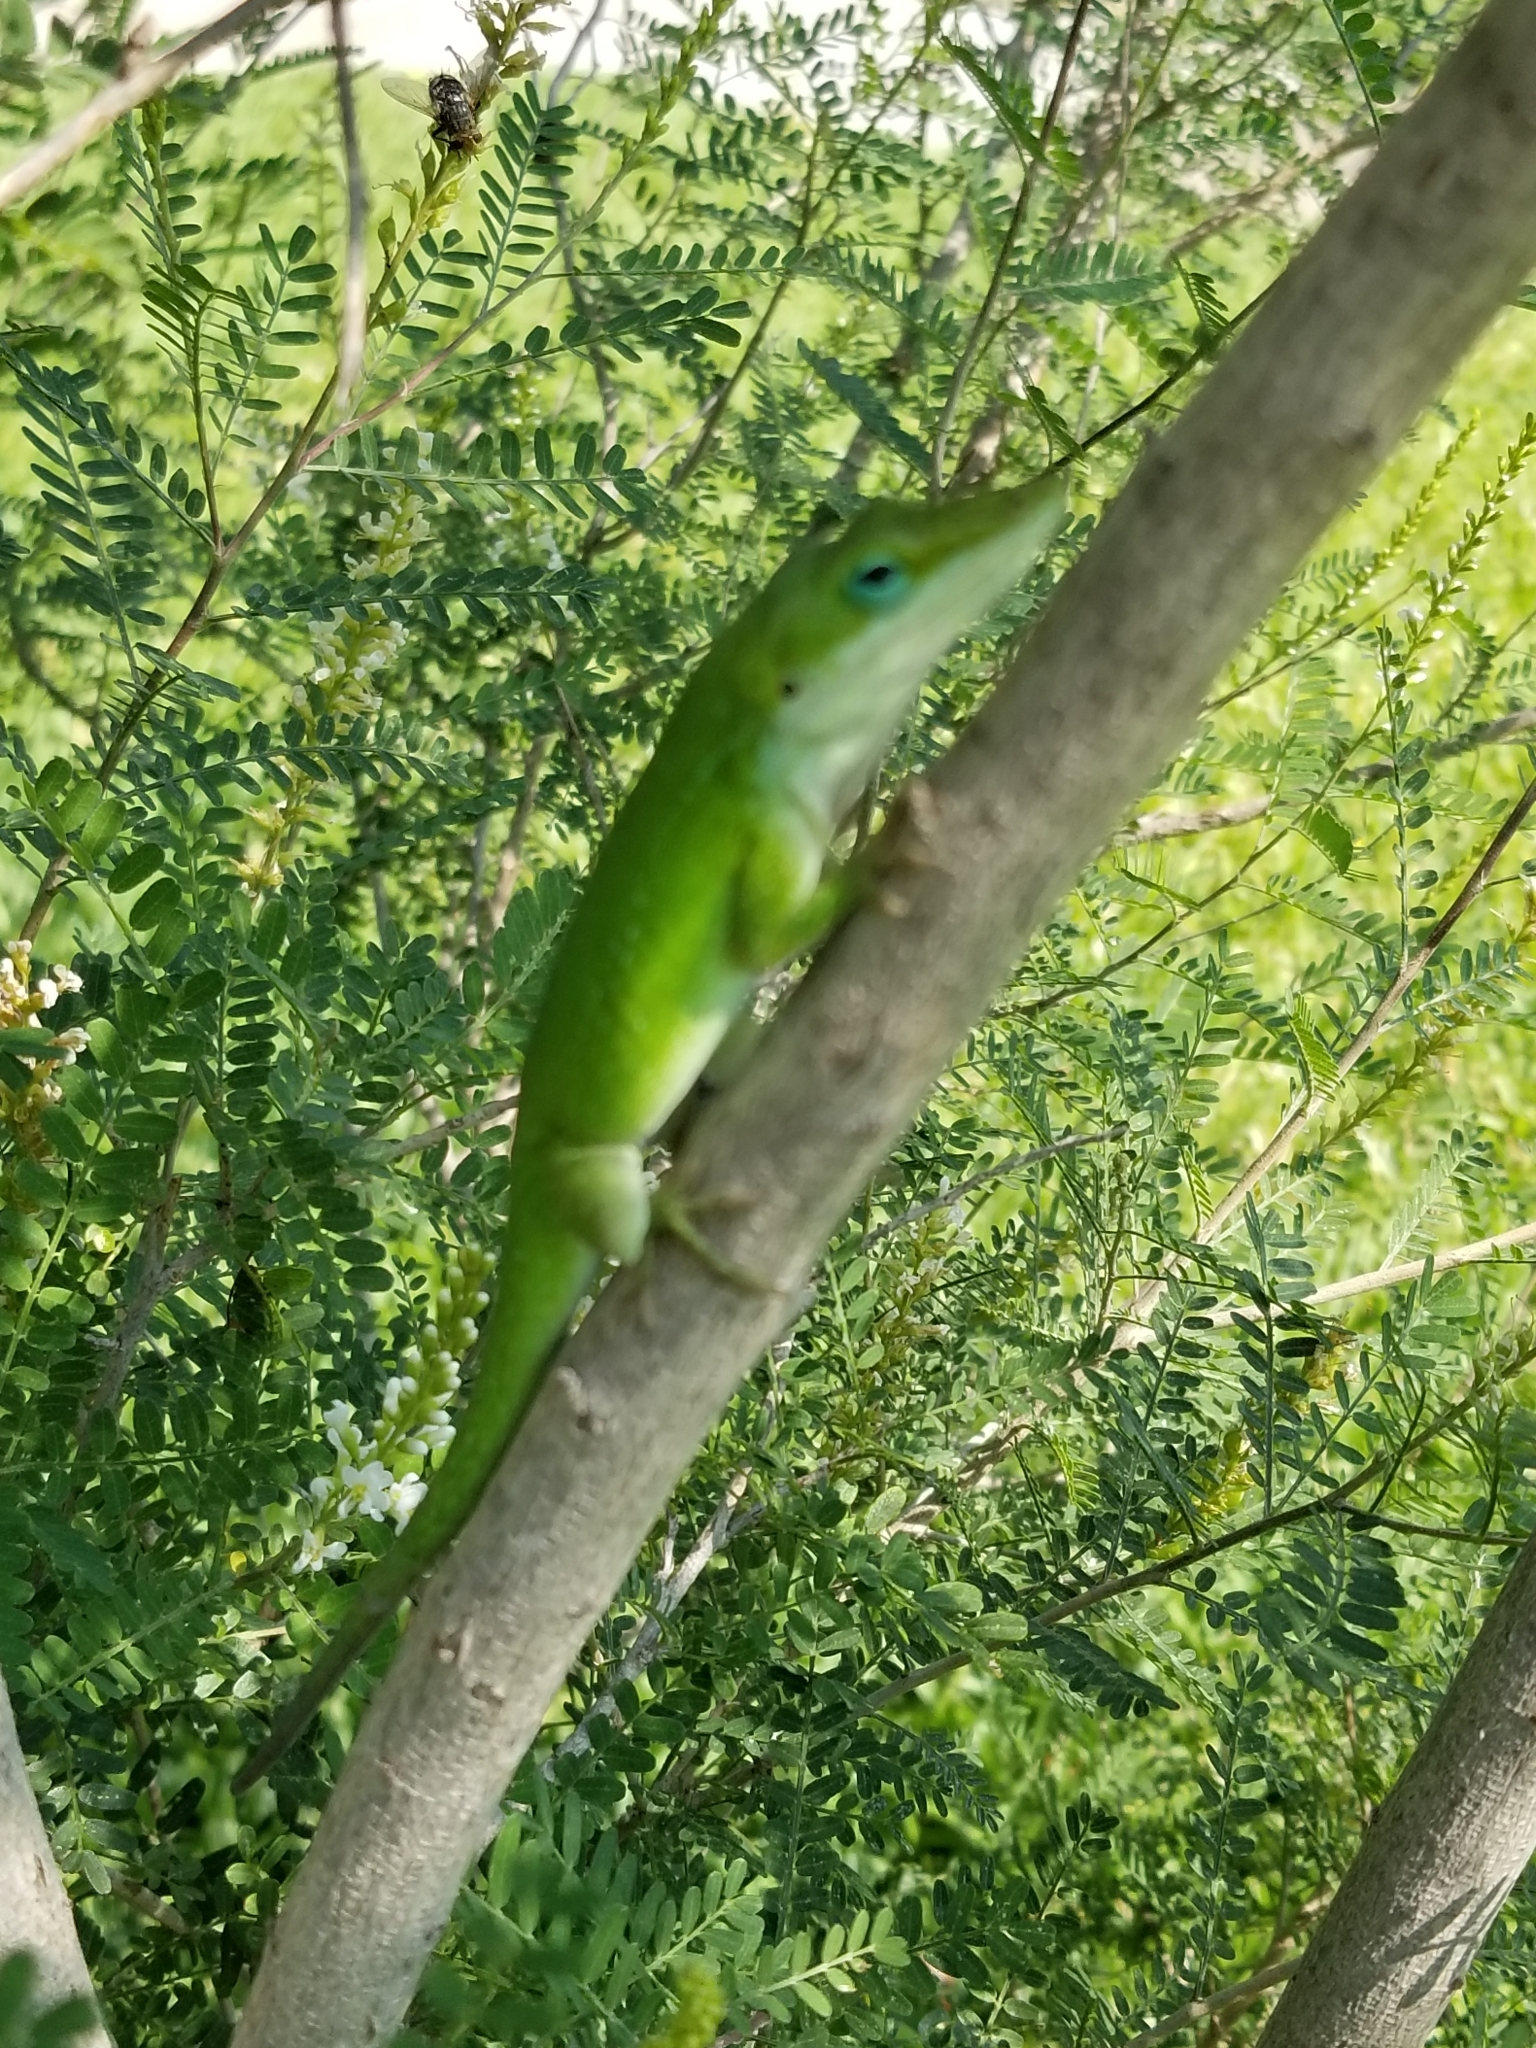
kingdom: Animalia
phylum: Chordata
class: Squamata
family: Dactyloidae
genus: Anolis
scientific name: Anolis carolinensis
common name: Green anole
